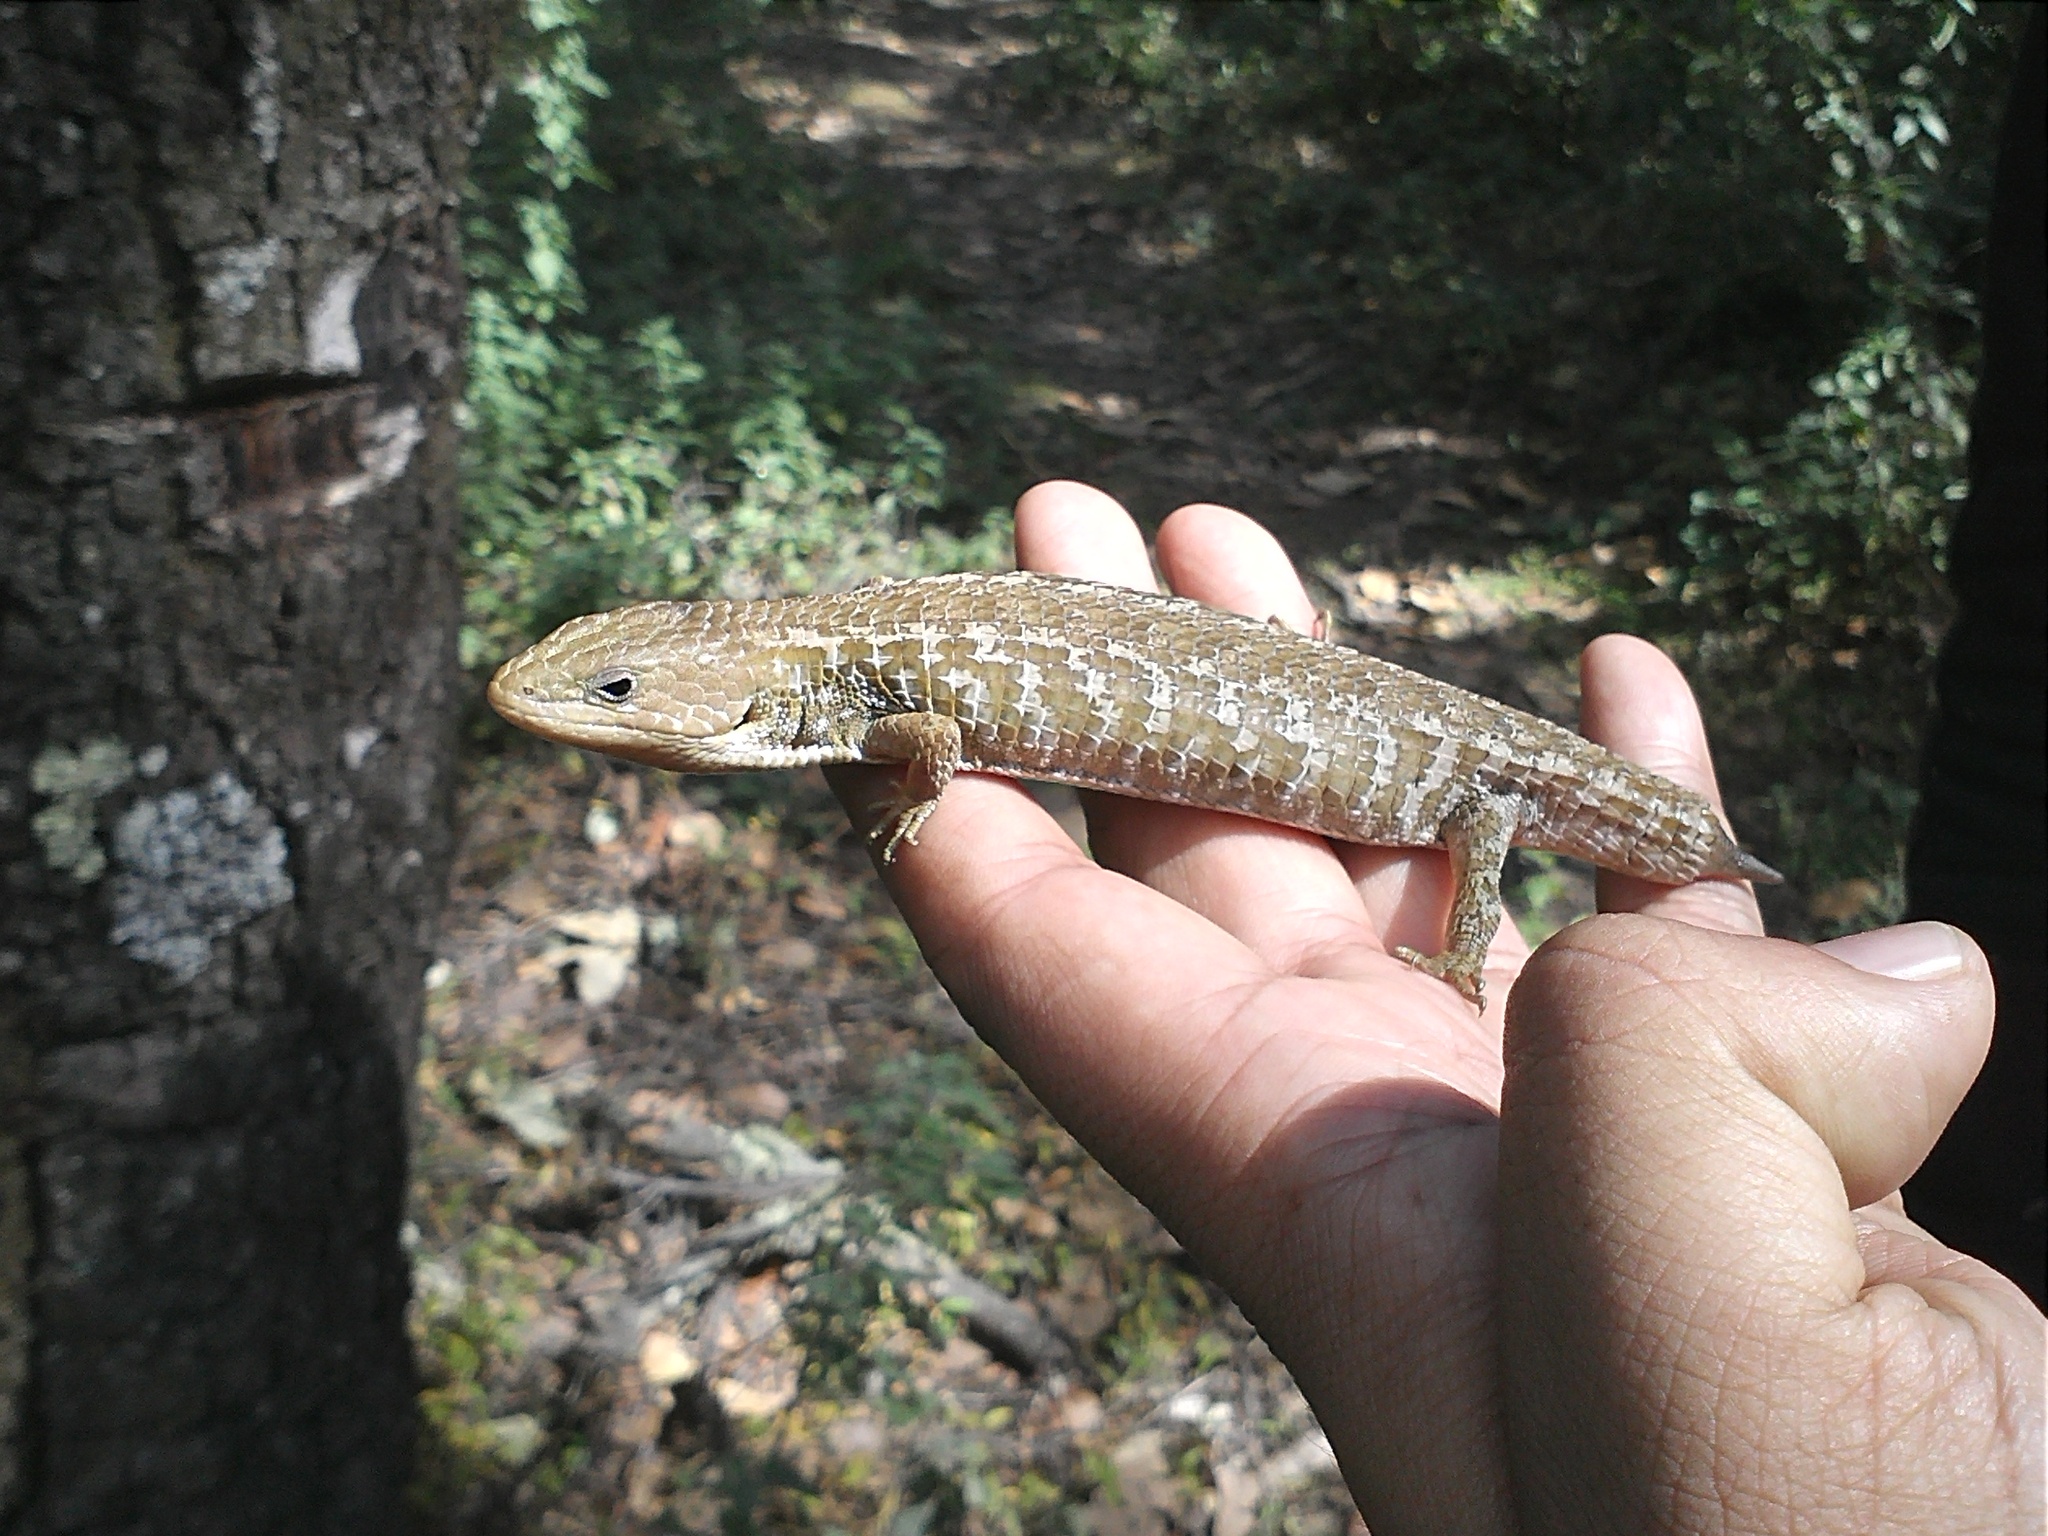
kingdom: Animalia
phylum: Chordata
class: Squamata
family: Anguidae
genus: Barisia
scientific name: Barisia imbricata
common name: Imbricate alligator lizard
